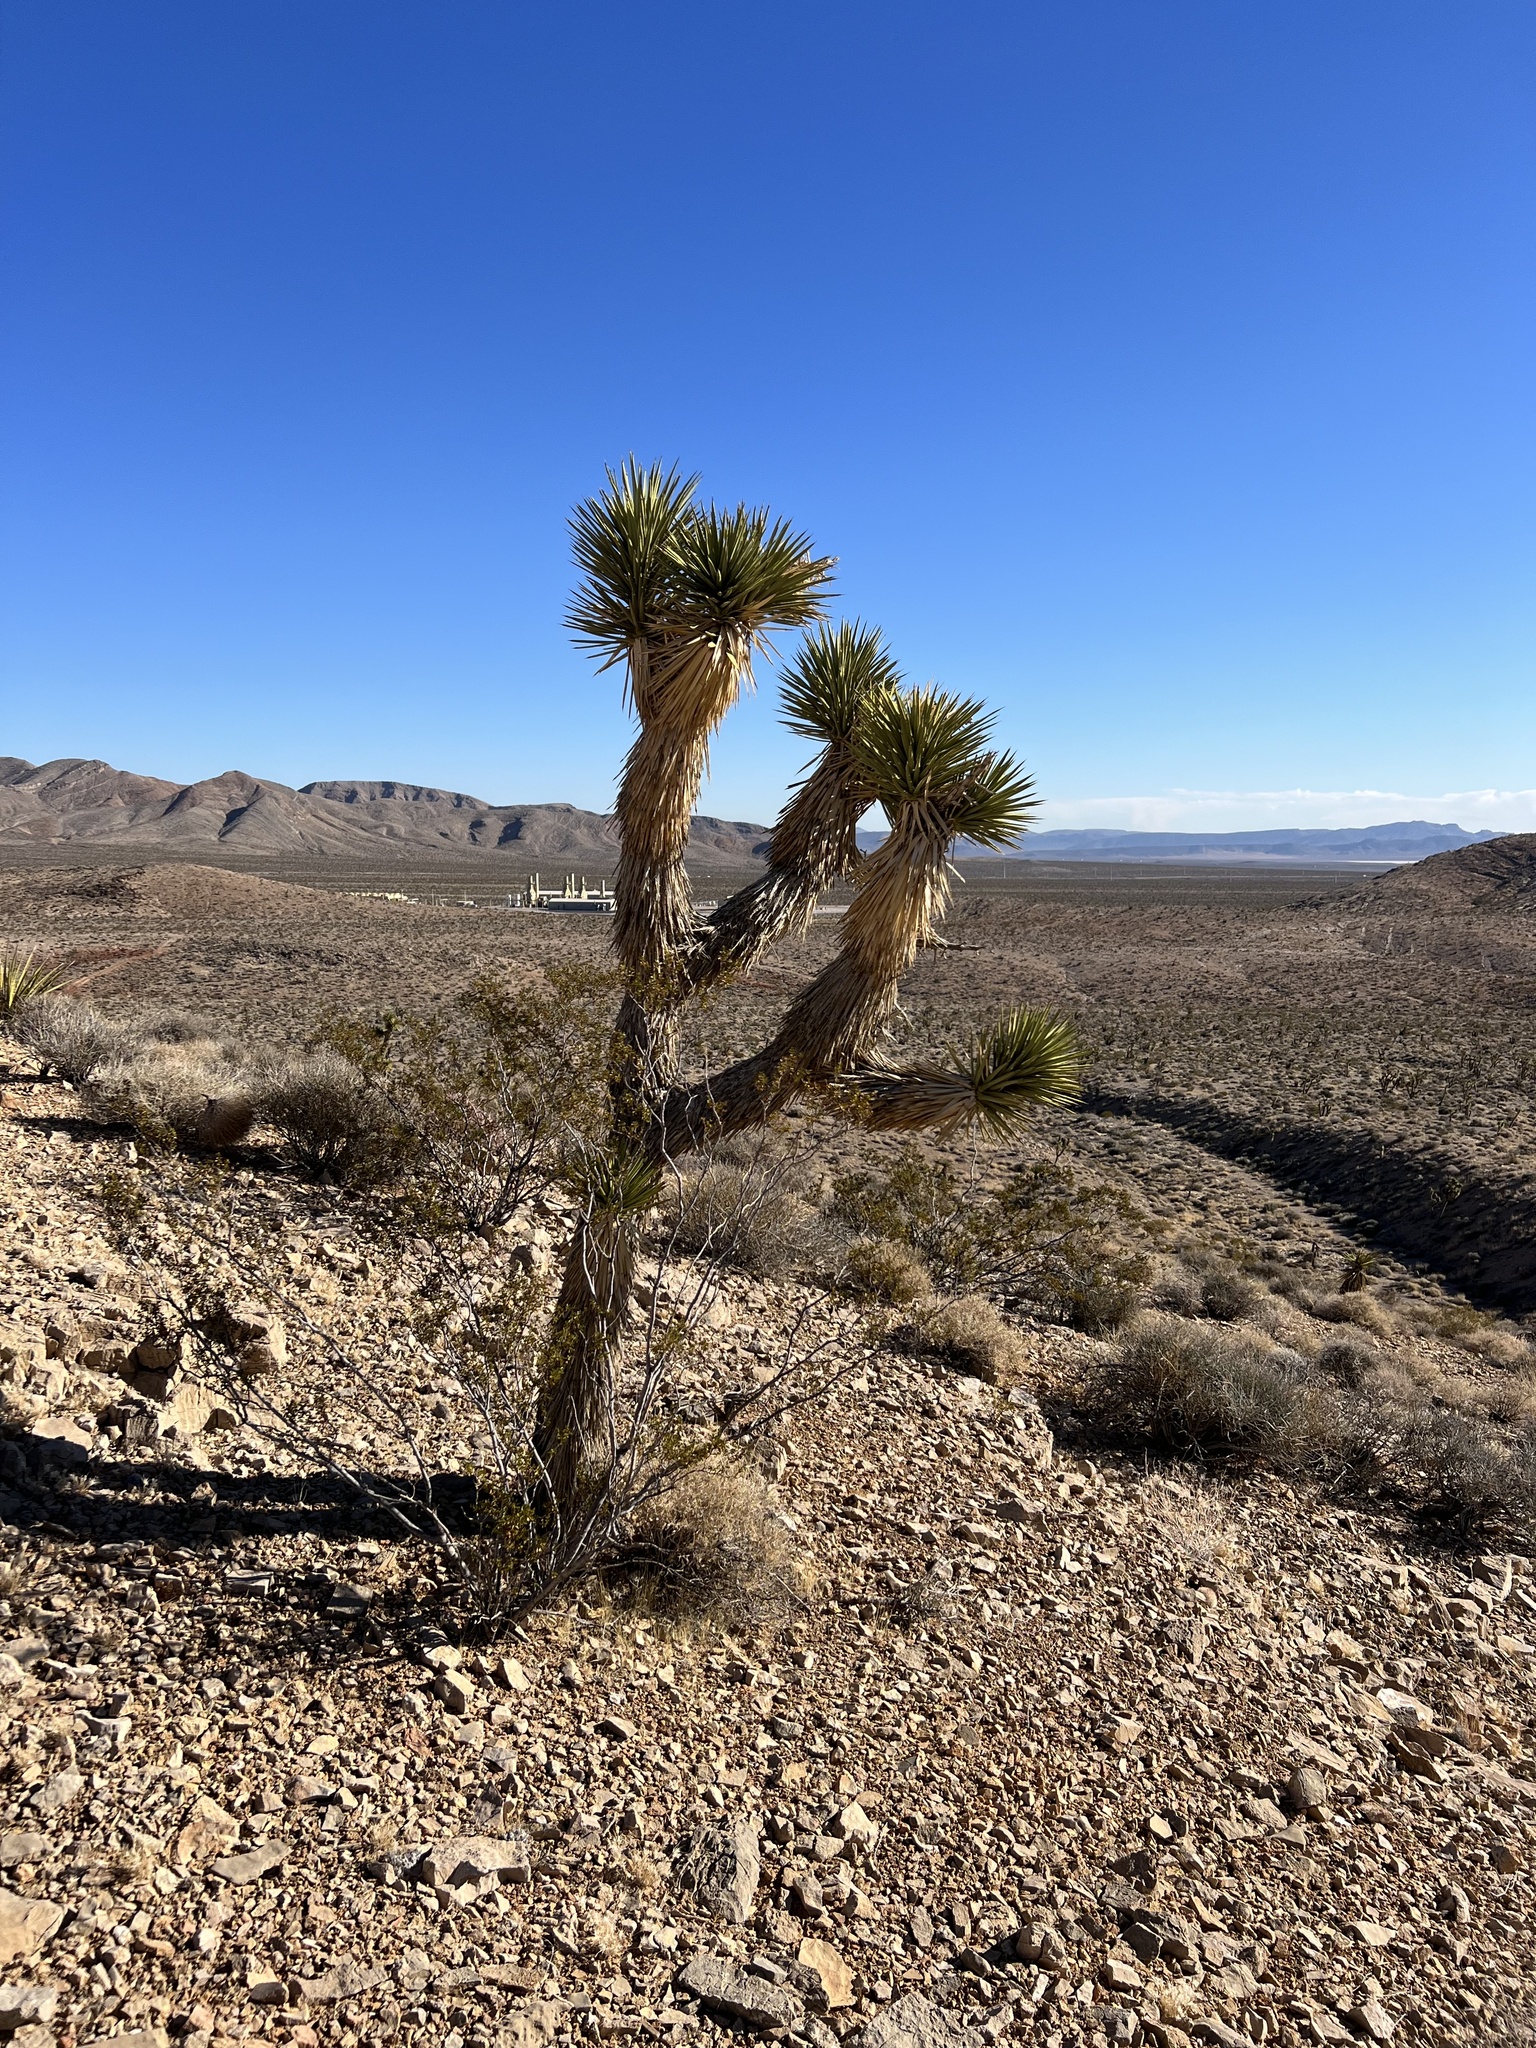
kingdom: Plantae
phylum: Tracheophyta
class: Liliopsida
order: Asparagales
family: Asparagaceae
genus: Yucca
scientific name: Yucca brevifolia
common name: Joshua tree
